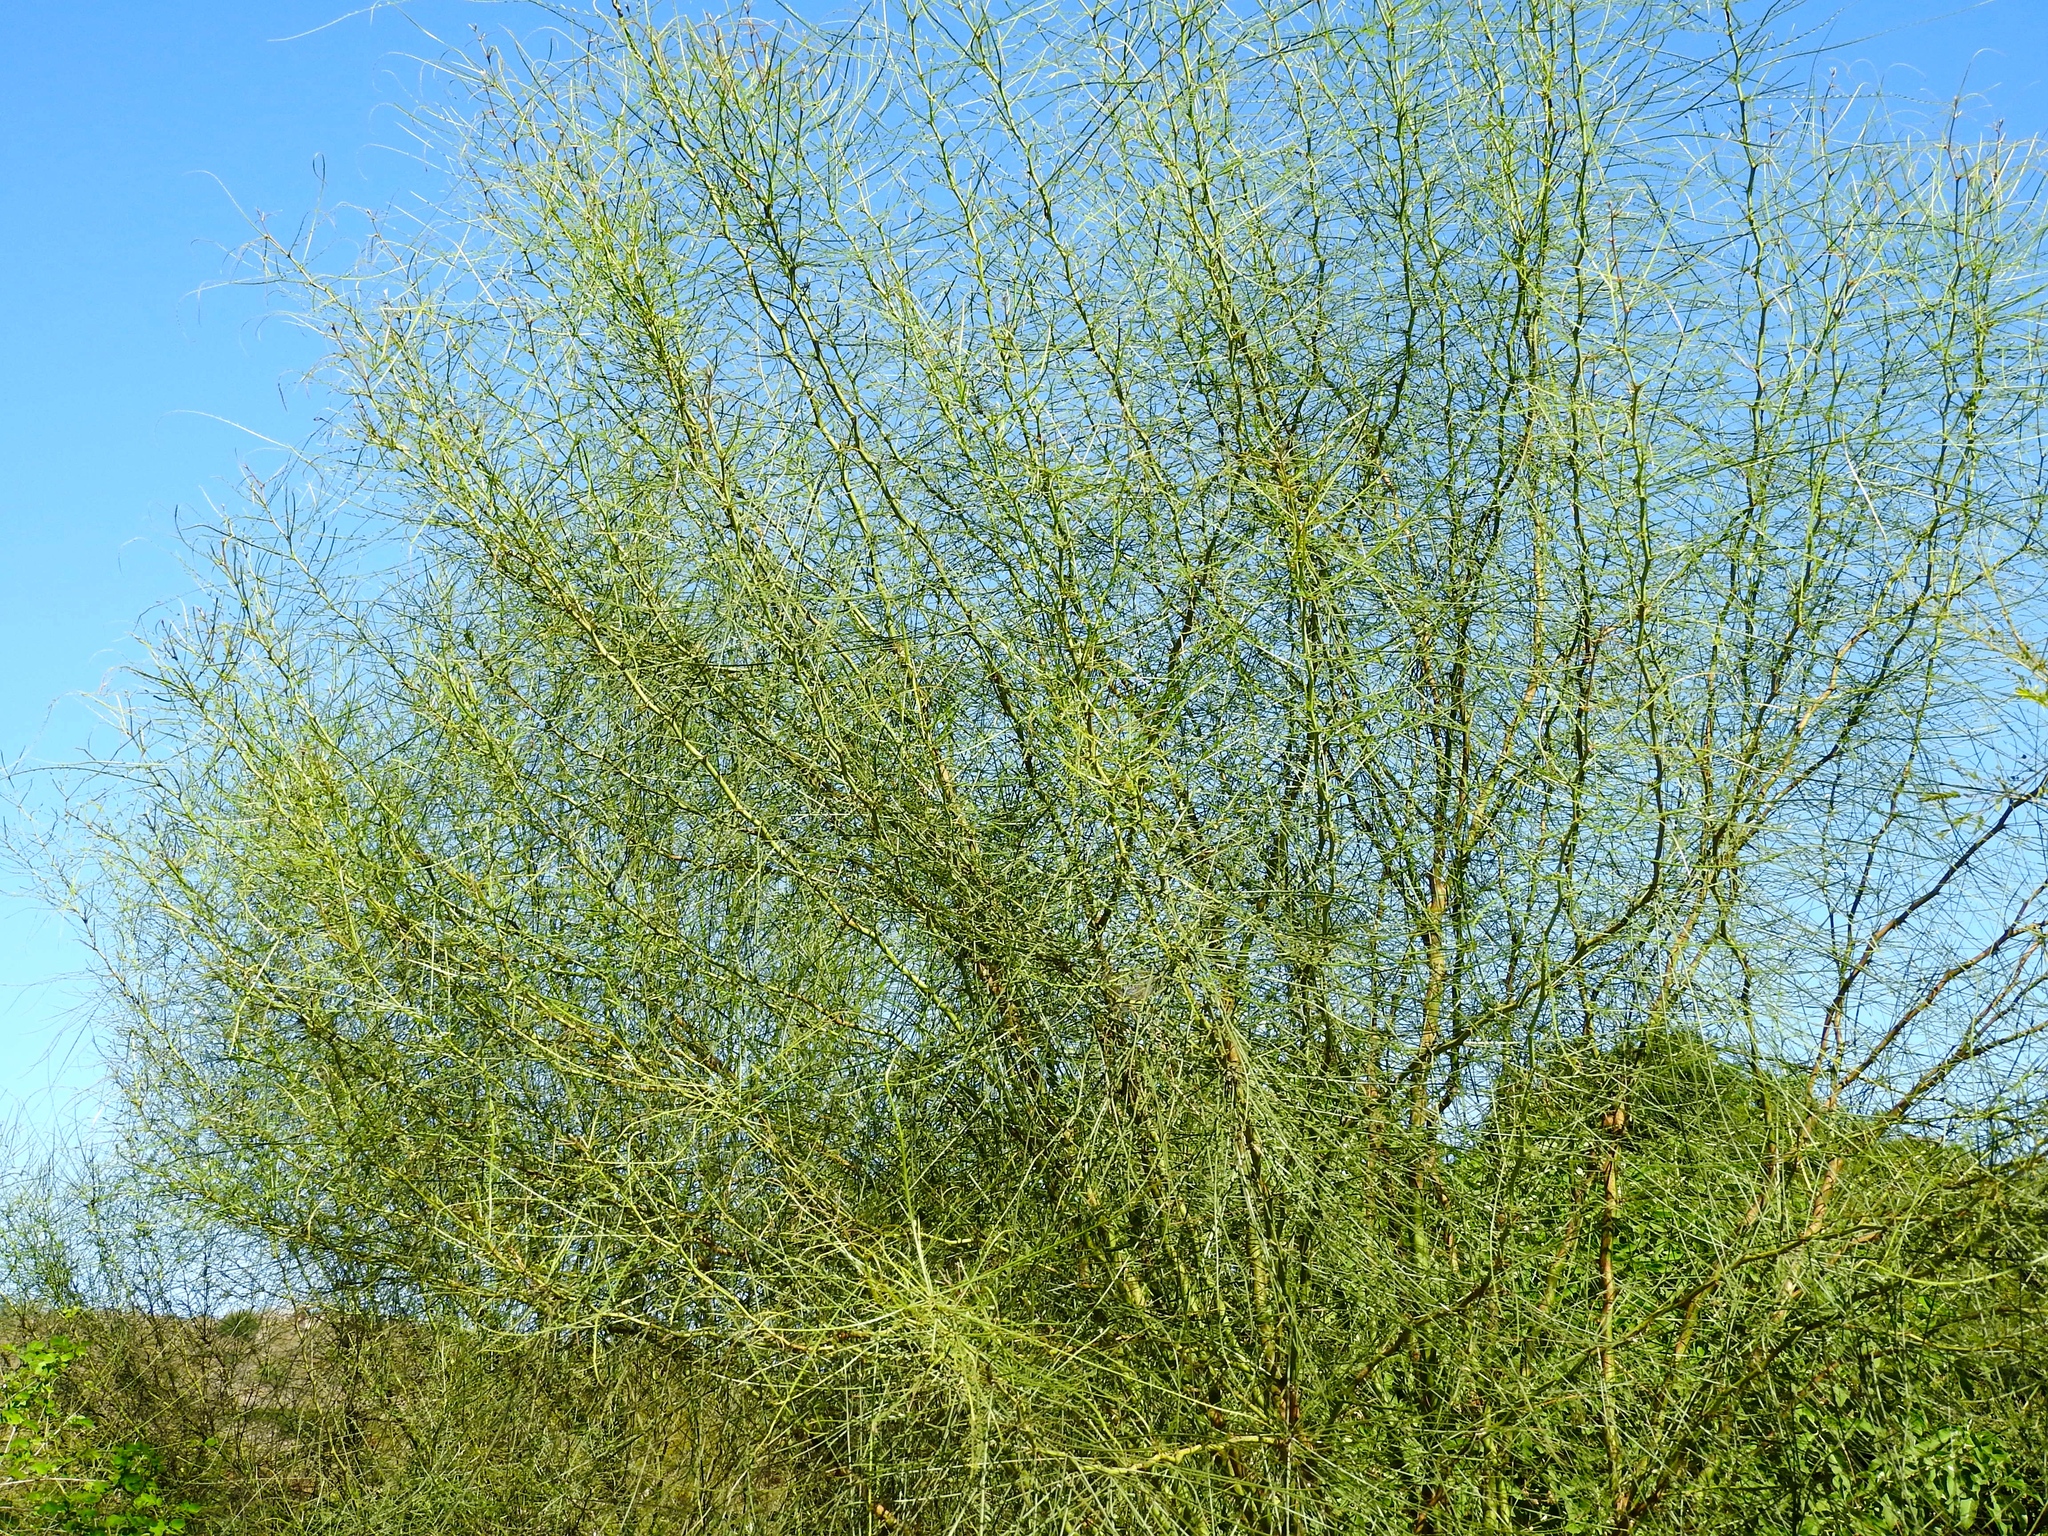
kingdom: Plantae
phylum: Tracheophyta
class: Magnoliopsida
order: Fabales
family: Fabaceae
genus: Parkinsonia
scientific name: Parkinsonia aculeata
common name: Jerusalem thorn
